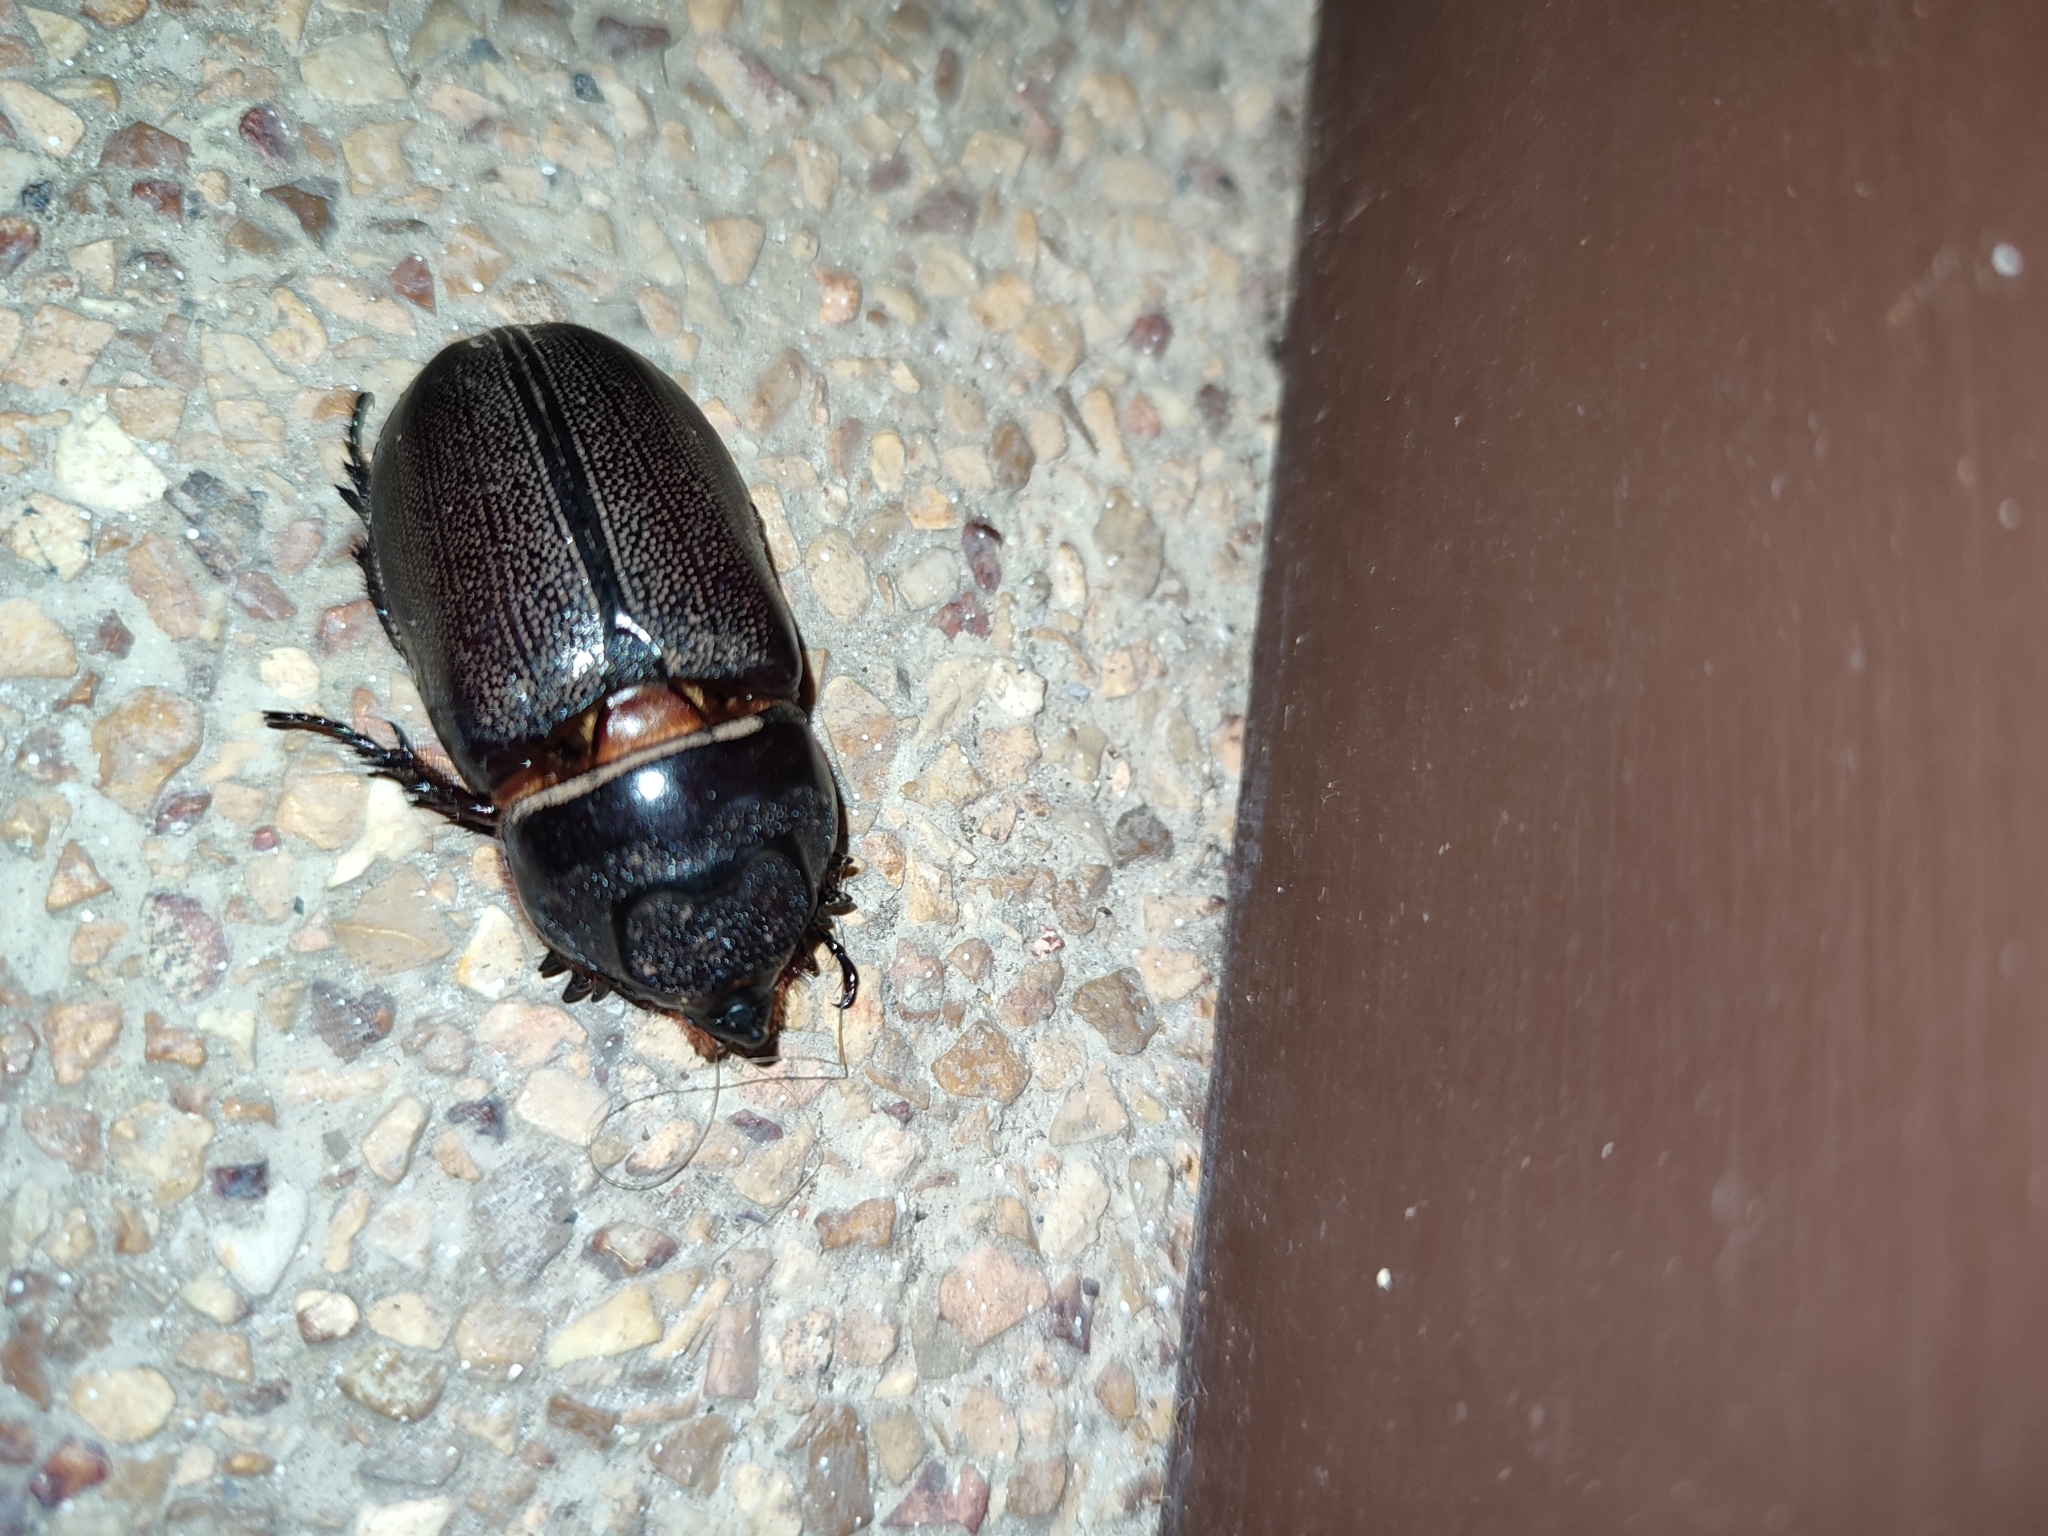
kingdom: Animalia
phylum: Arthropoda
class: Insecta
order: Coleoptera
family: Scarabaeidae
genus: Oryctes
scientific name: Oryctes rhinoceros
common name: Coconut rhinoceros beetle
